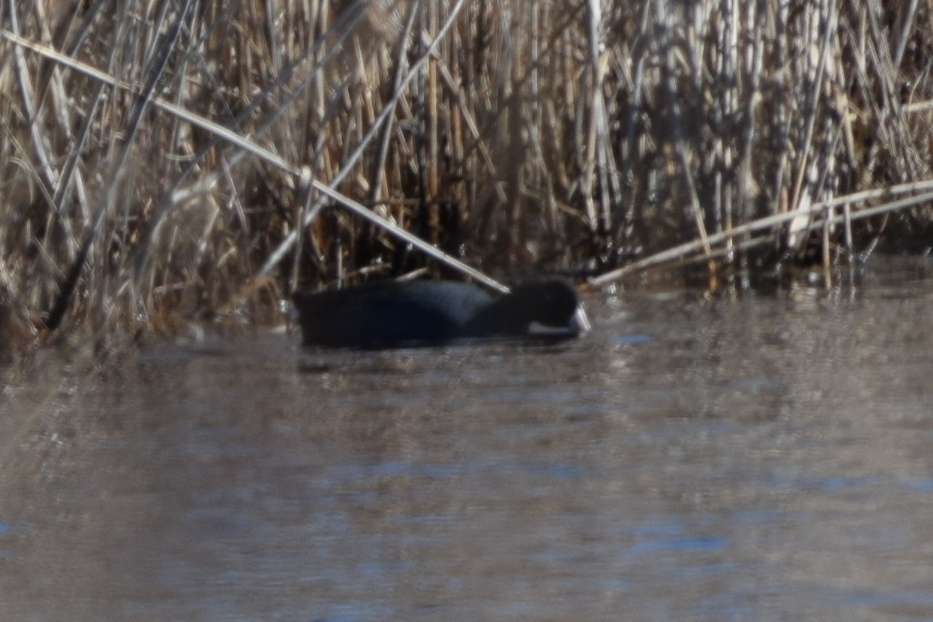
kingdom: Animalia
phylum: Chordata
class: Aves
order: Gruiformes
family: Rallidae
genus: Fulica
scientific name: Fulica americana
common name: American coot
